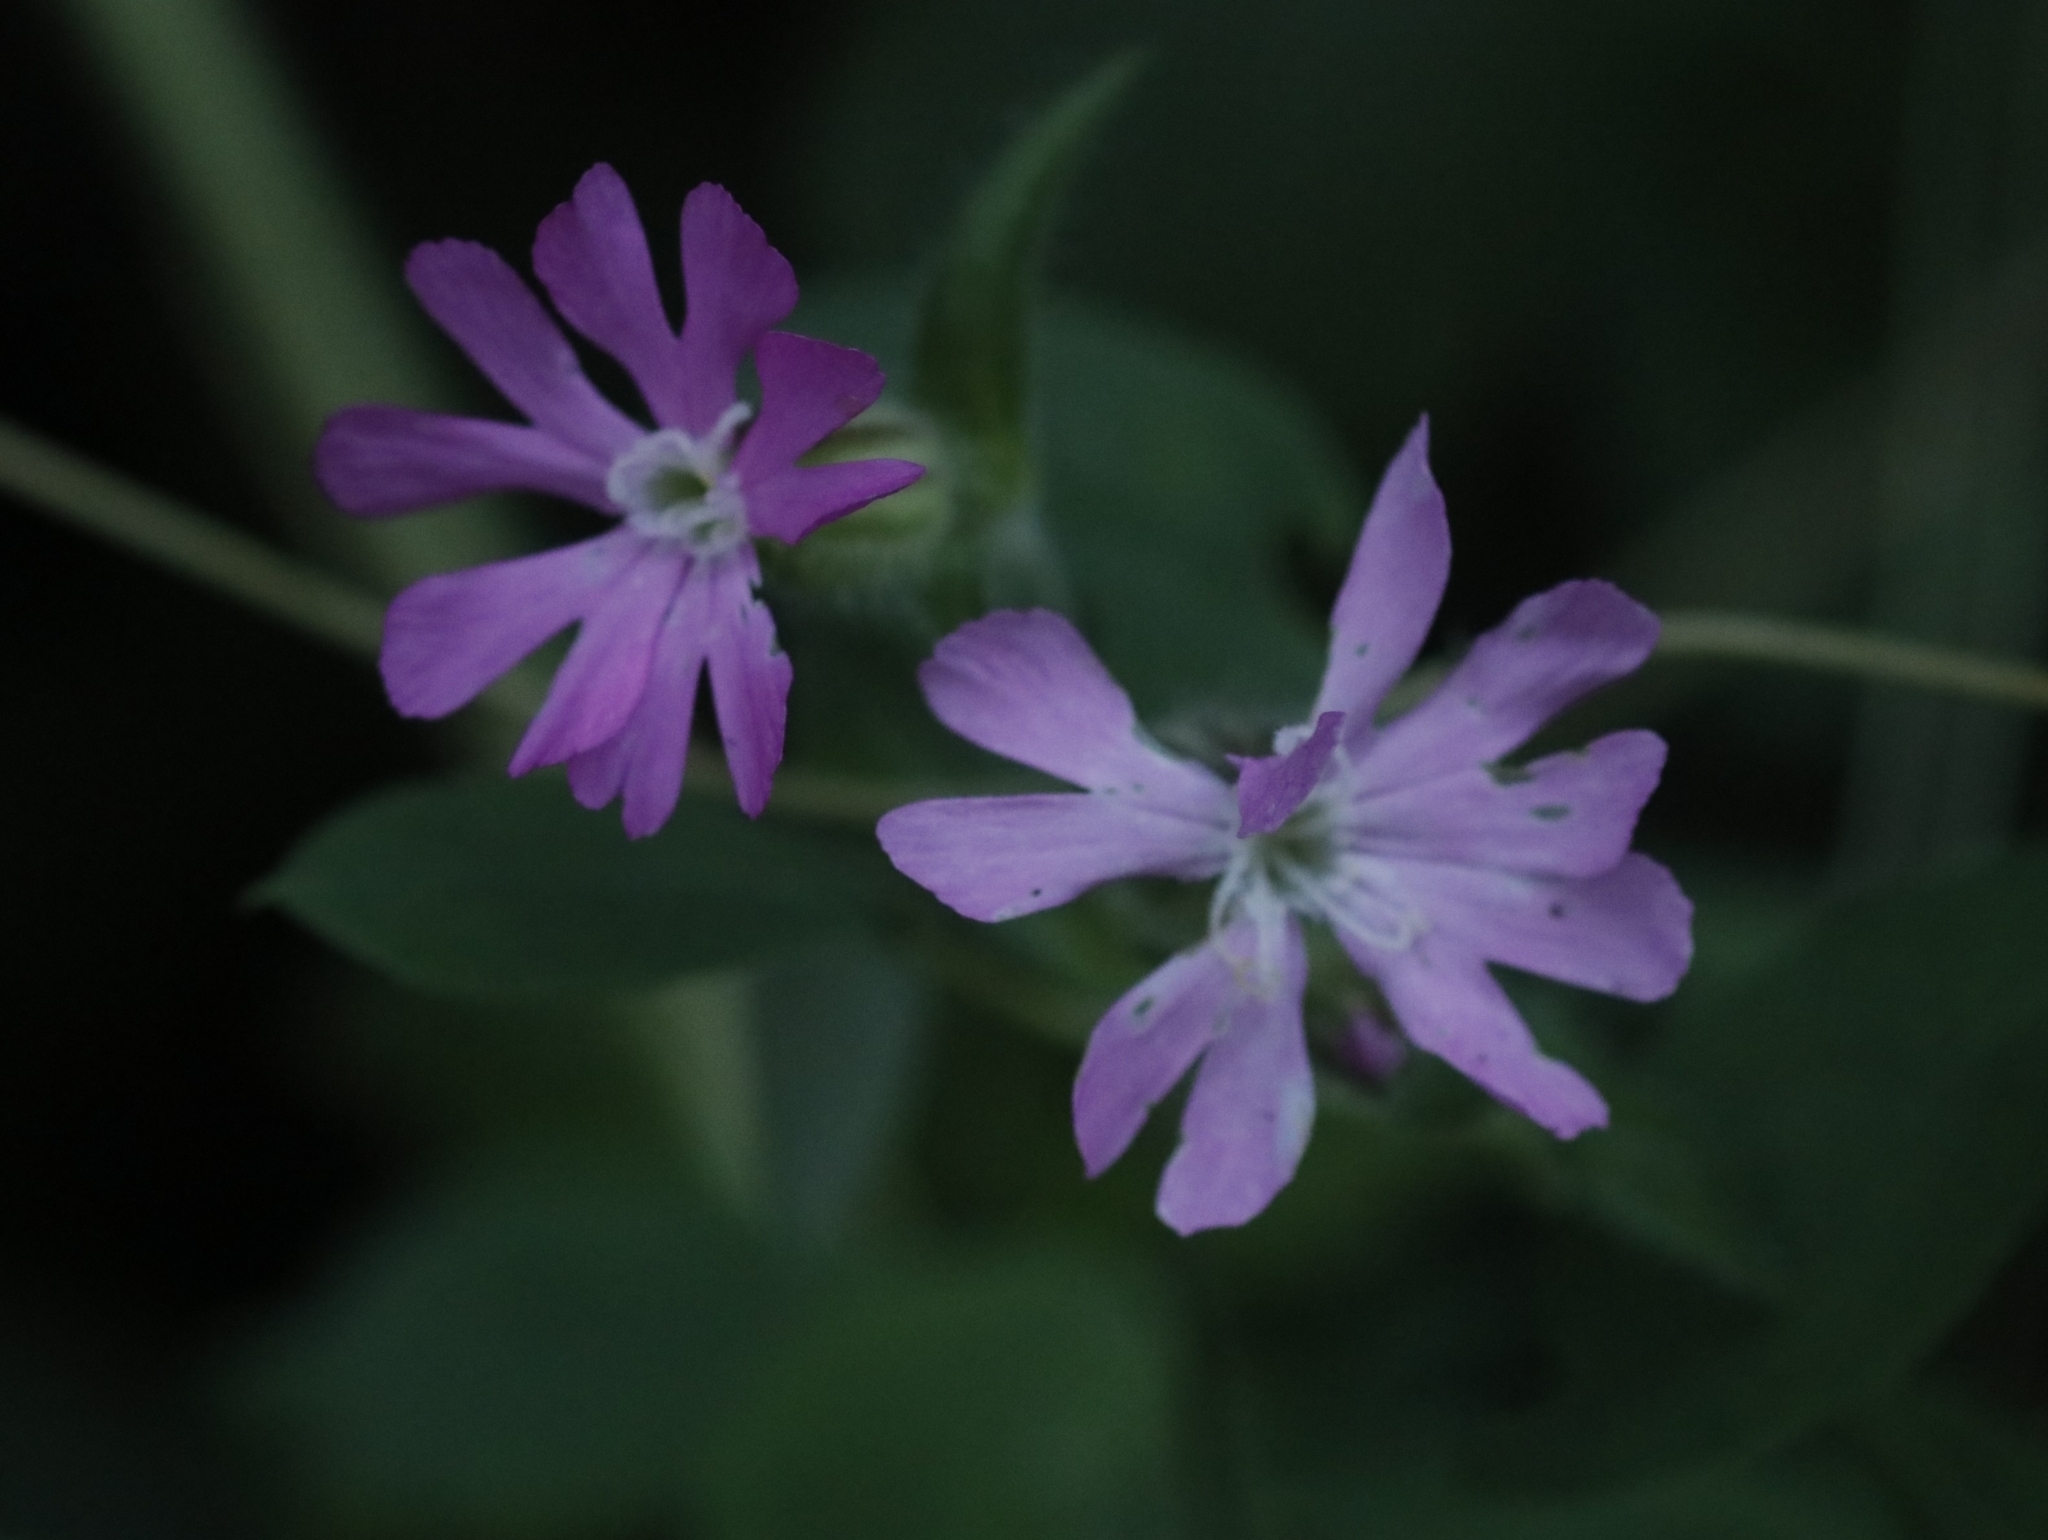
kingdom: Plantae
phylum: Tracheophyta
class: Magnoliopsida
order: Caryophyllales
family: Caryophyllaceae
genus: Silene
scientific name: Silene dioica
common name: Red campion
